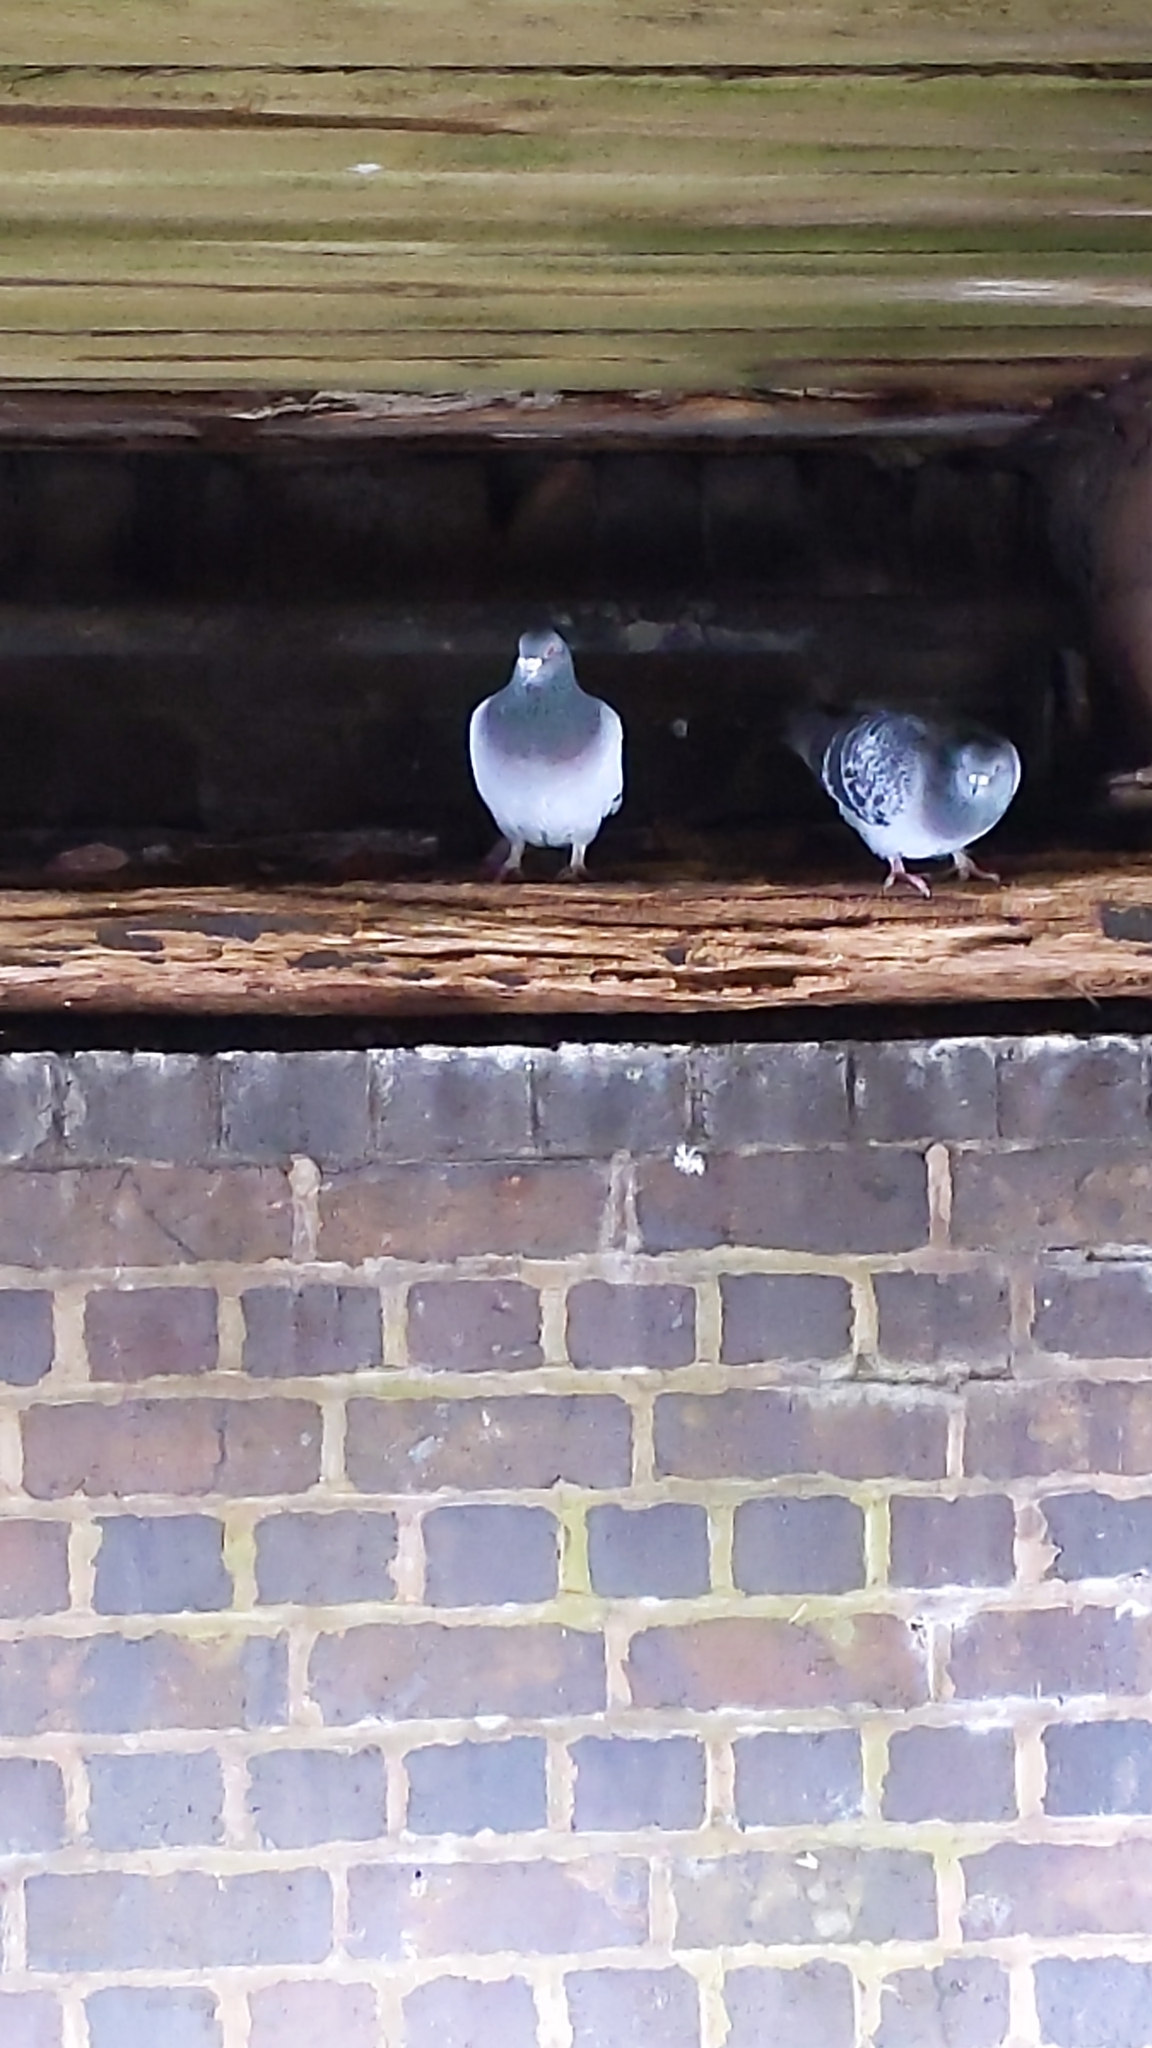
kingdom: Animalia
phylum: Chordata
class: Aves
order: Columbiformes
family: Columbidae
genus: Columba
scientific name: Columba livia
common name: Rock pigeon
